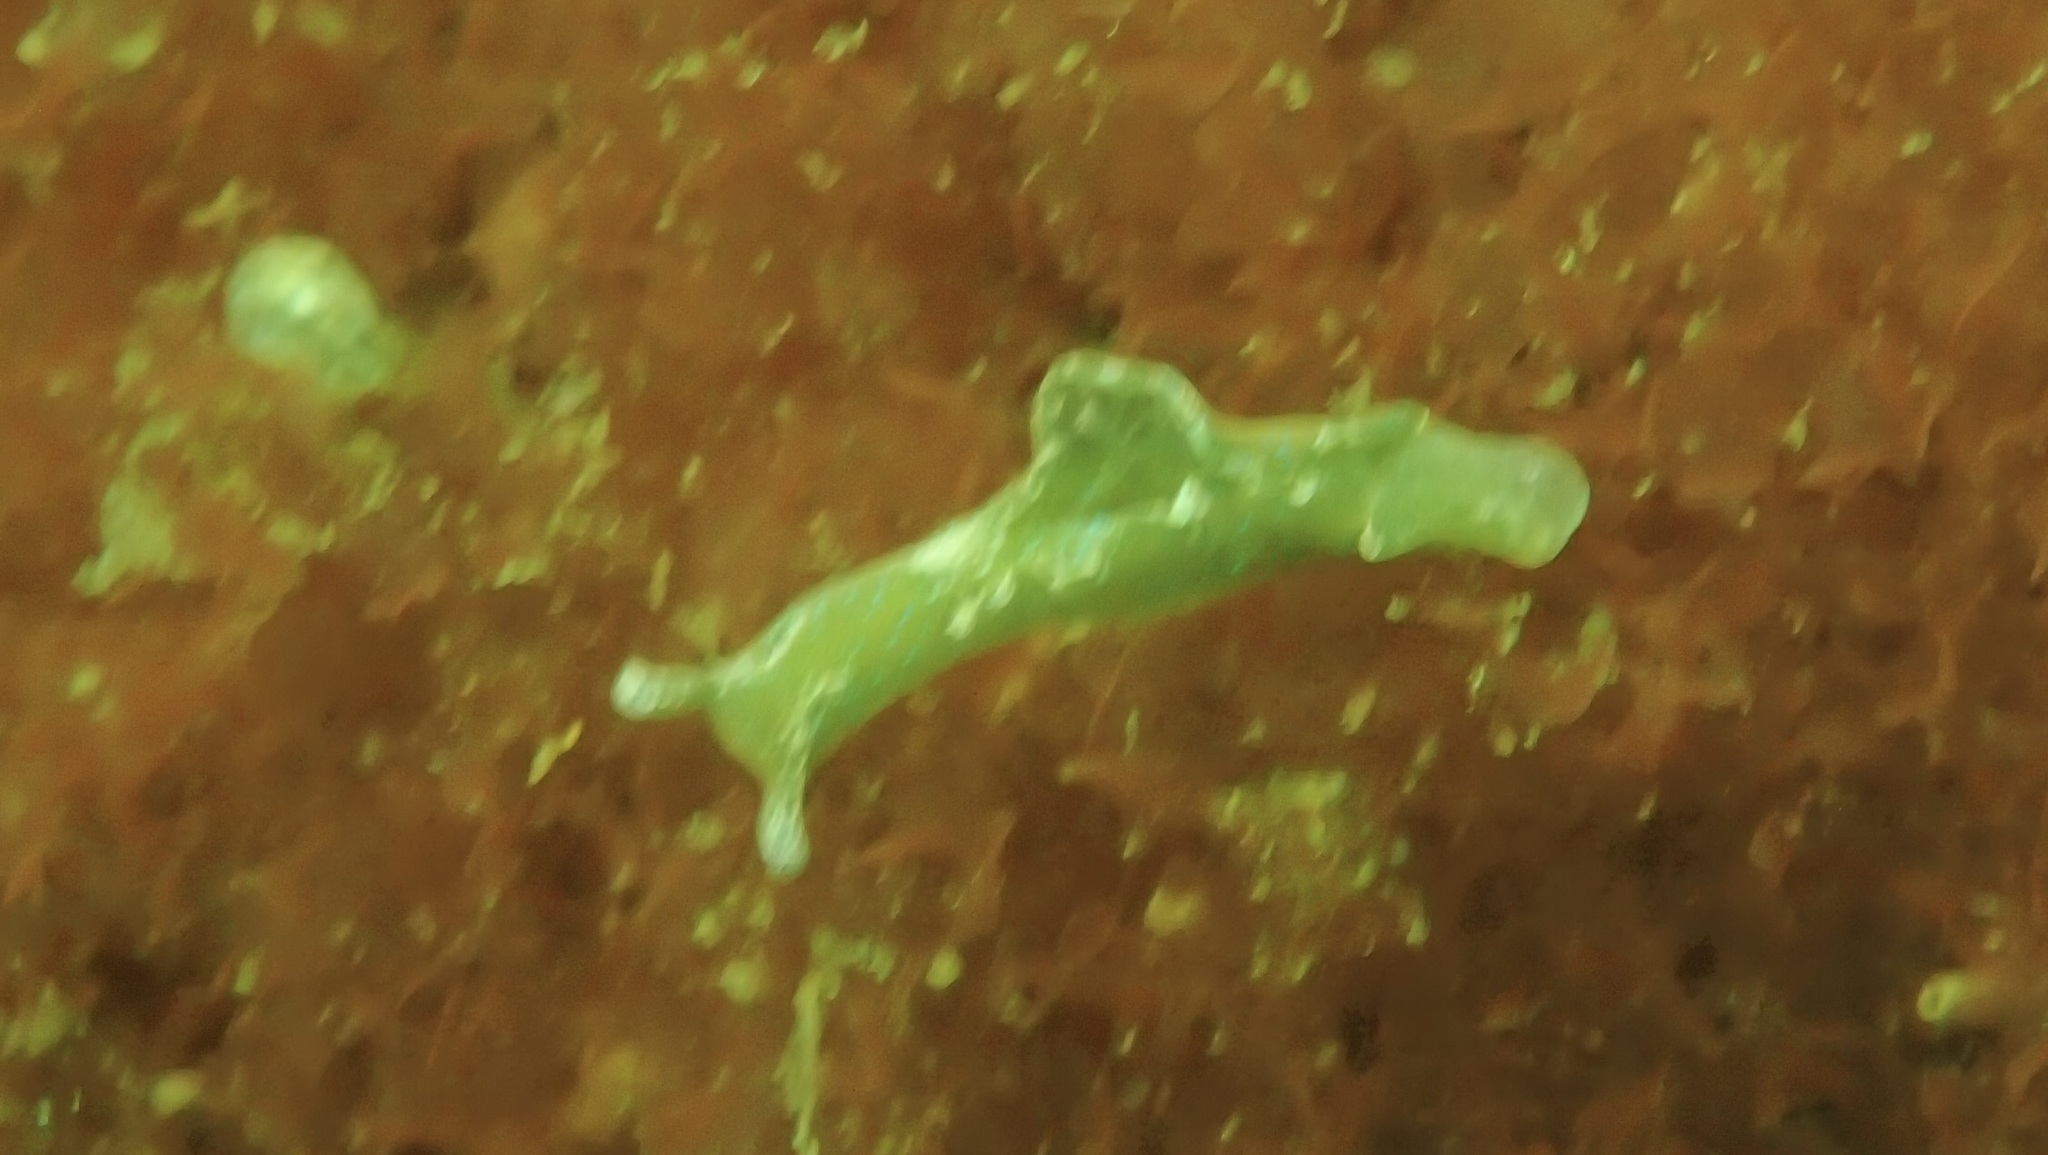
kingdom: Animalia
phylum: Mollusca
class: Gastropoda
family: Plakobranchidae
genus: Elysia
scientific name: Elysia viridis
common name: Green elysia
